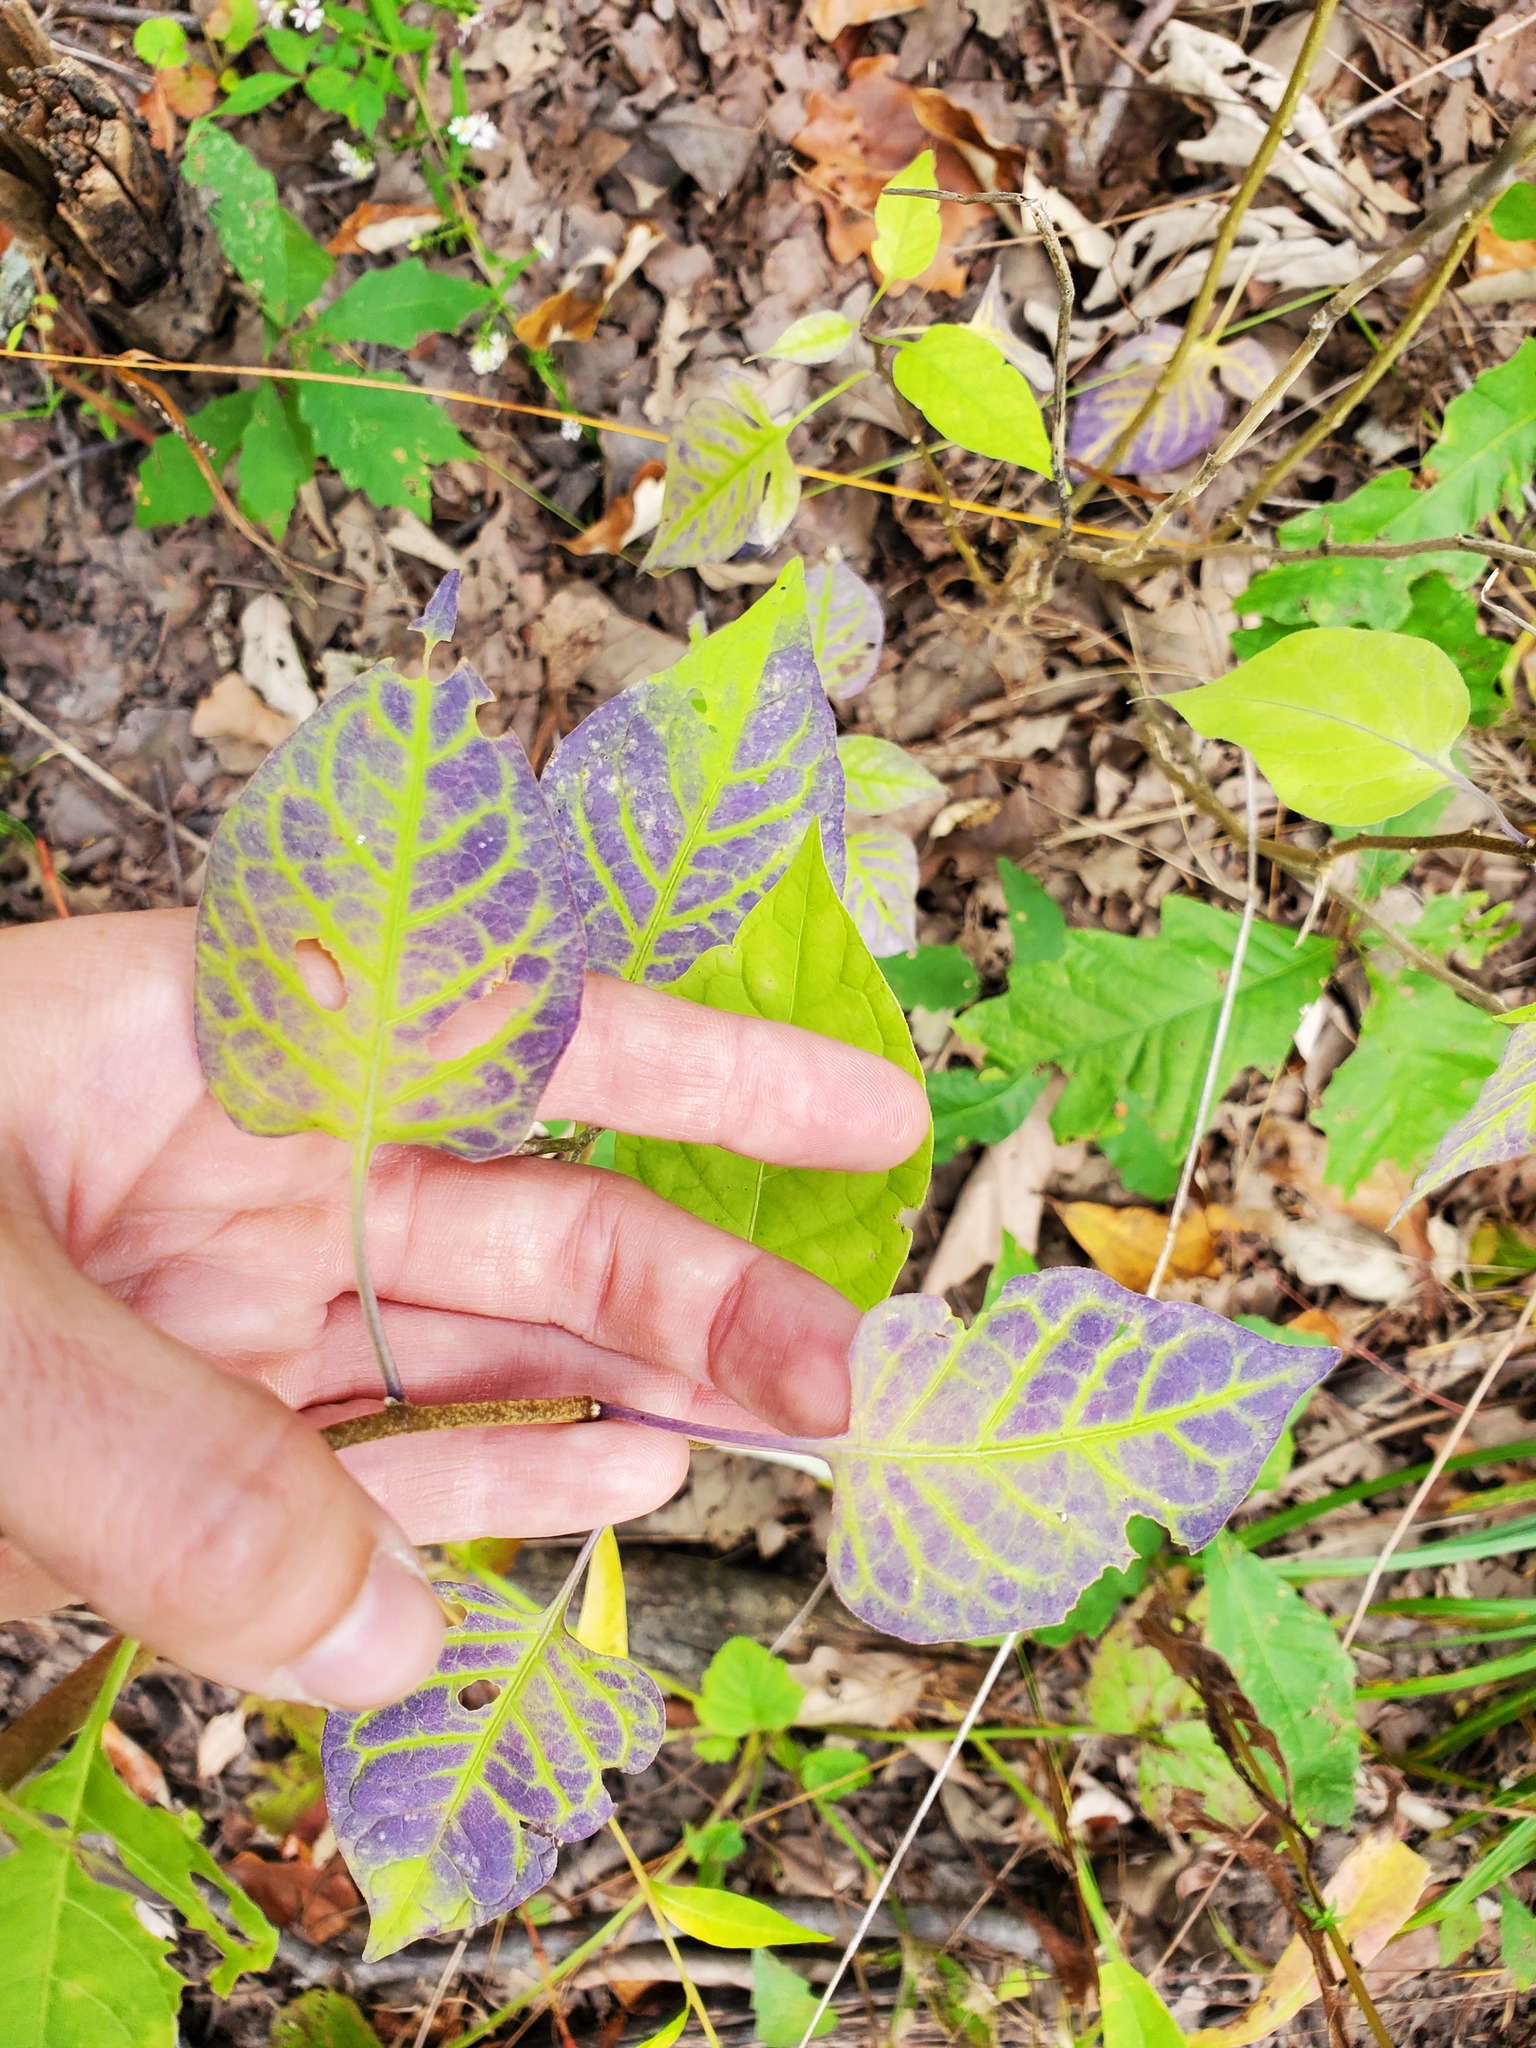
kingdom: Plantae
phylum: Tracheophyta
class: Magnoliopsida
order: Solanales
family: Solanaceae
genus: Solanum
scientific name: Solanum dulcamara
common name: Climbing nightshade
